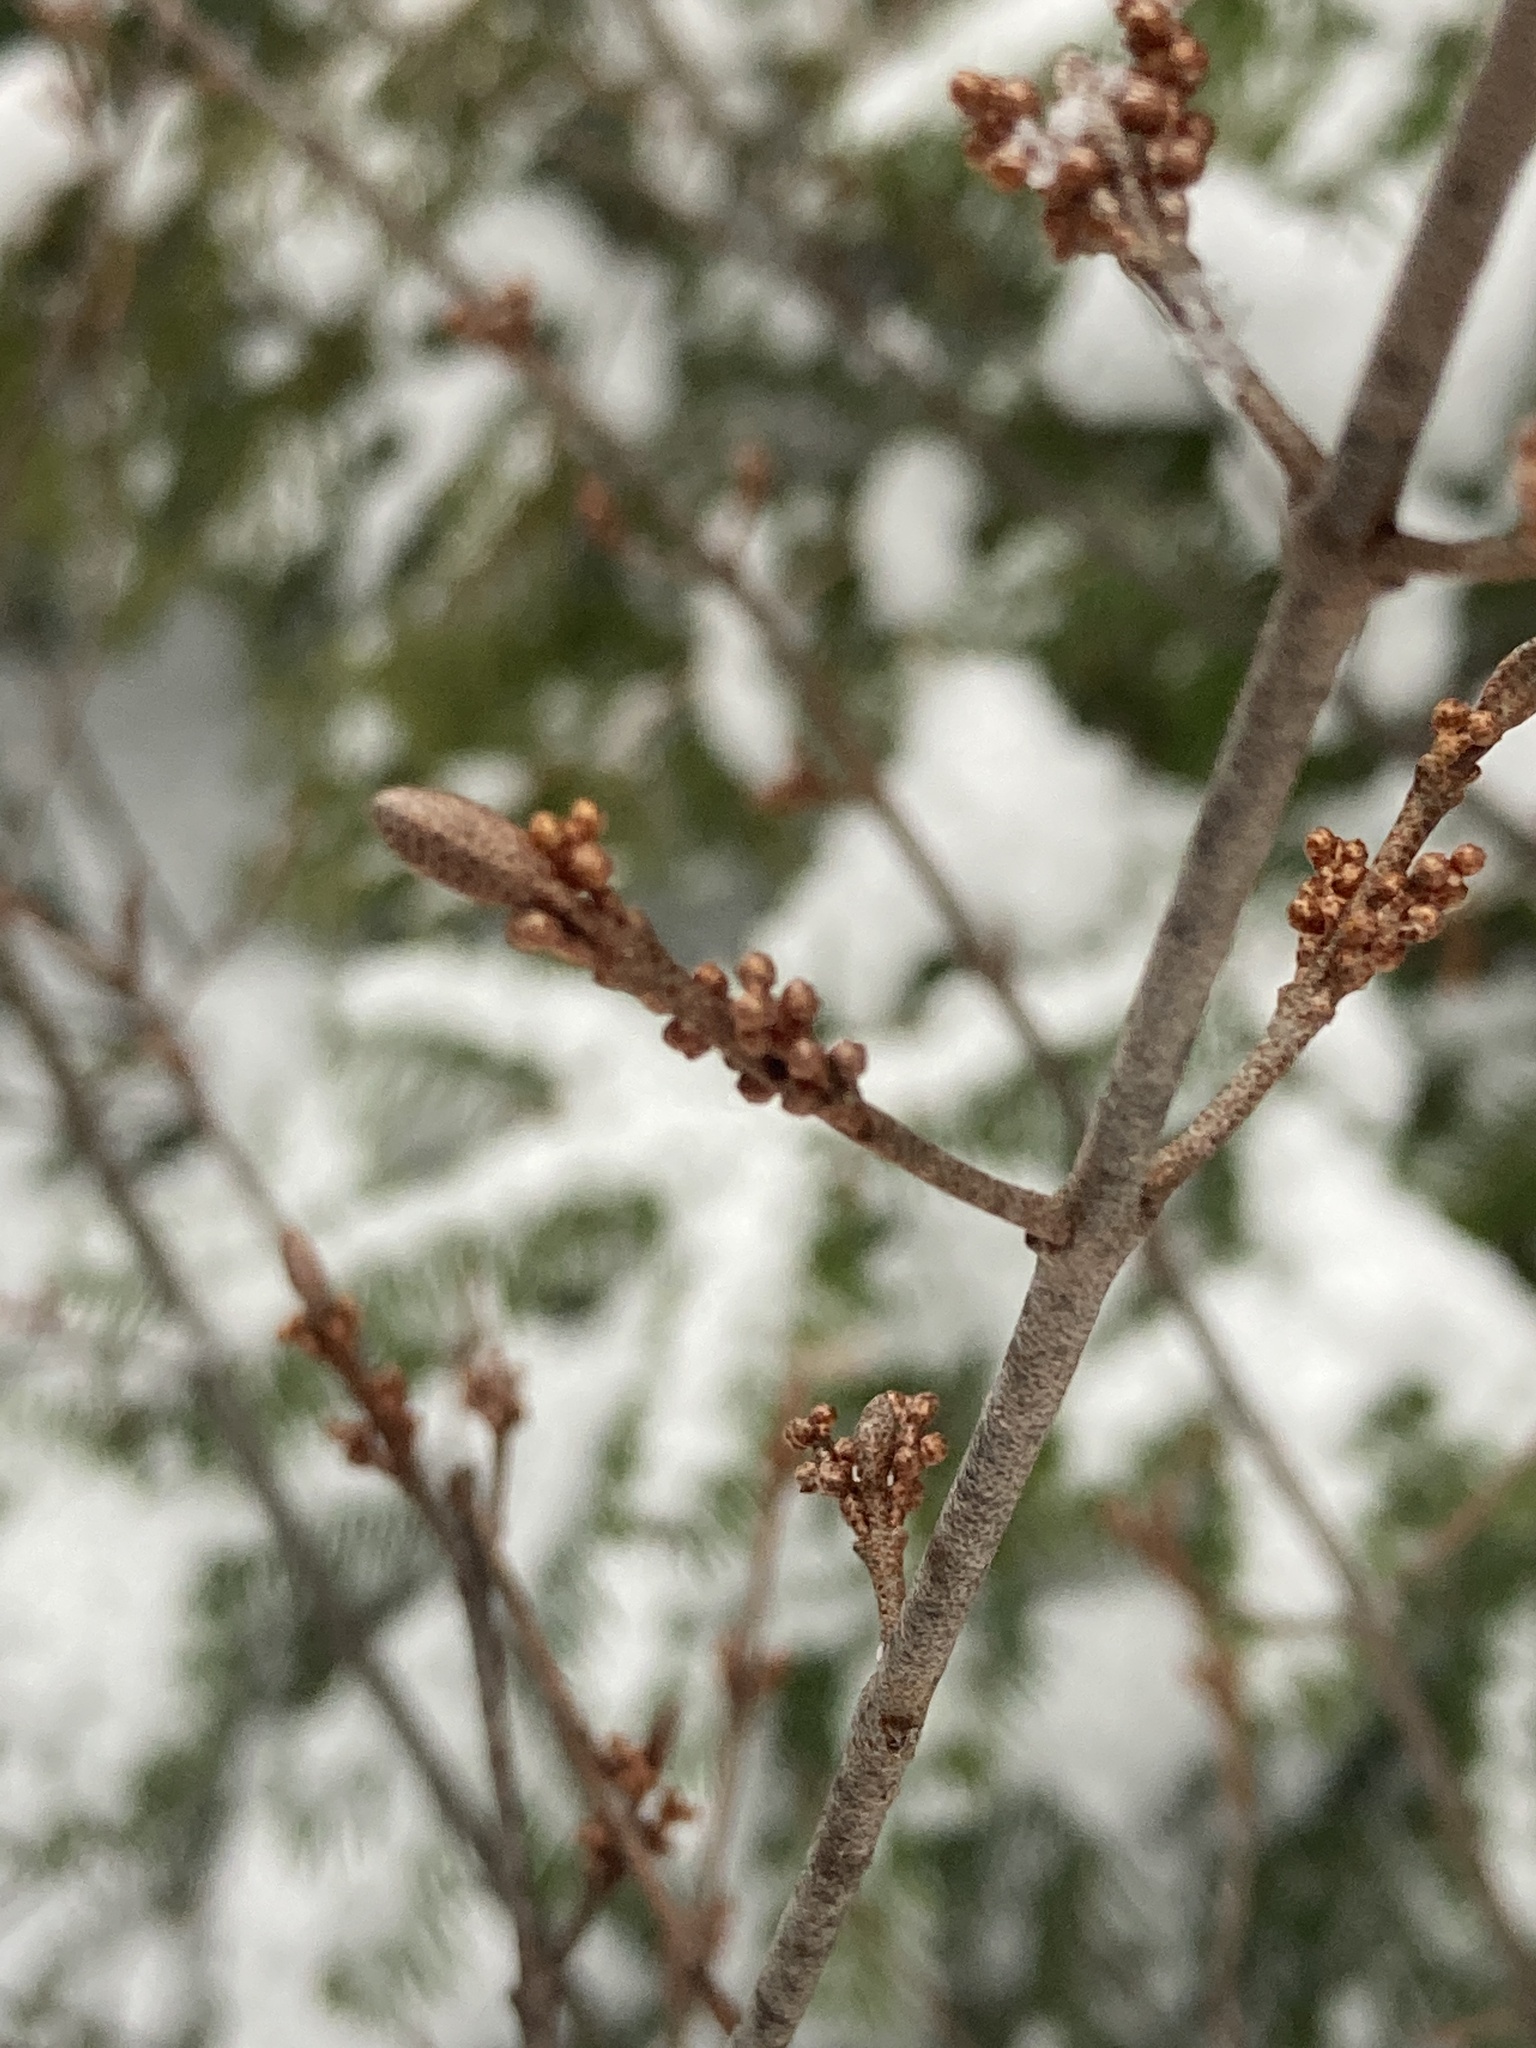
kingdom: Plantae
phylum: Tracheophyta
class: Magnoliopsida
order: Rosales
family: Elaeagnaceae
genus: Shepherdia
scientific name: Shepherdia canadensis
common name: Soapberry
